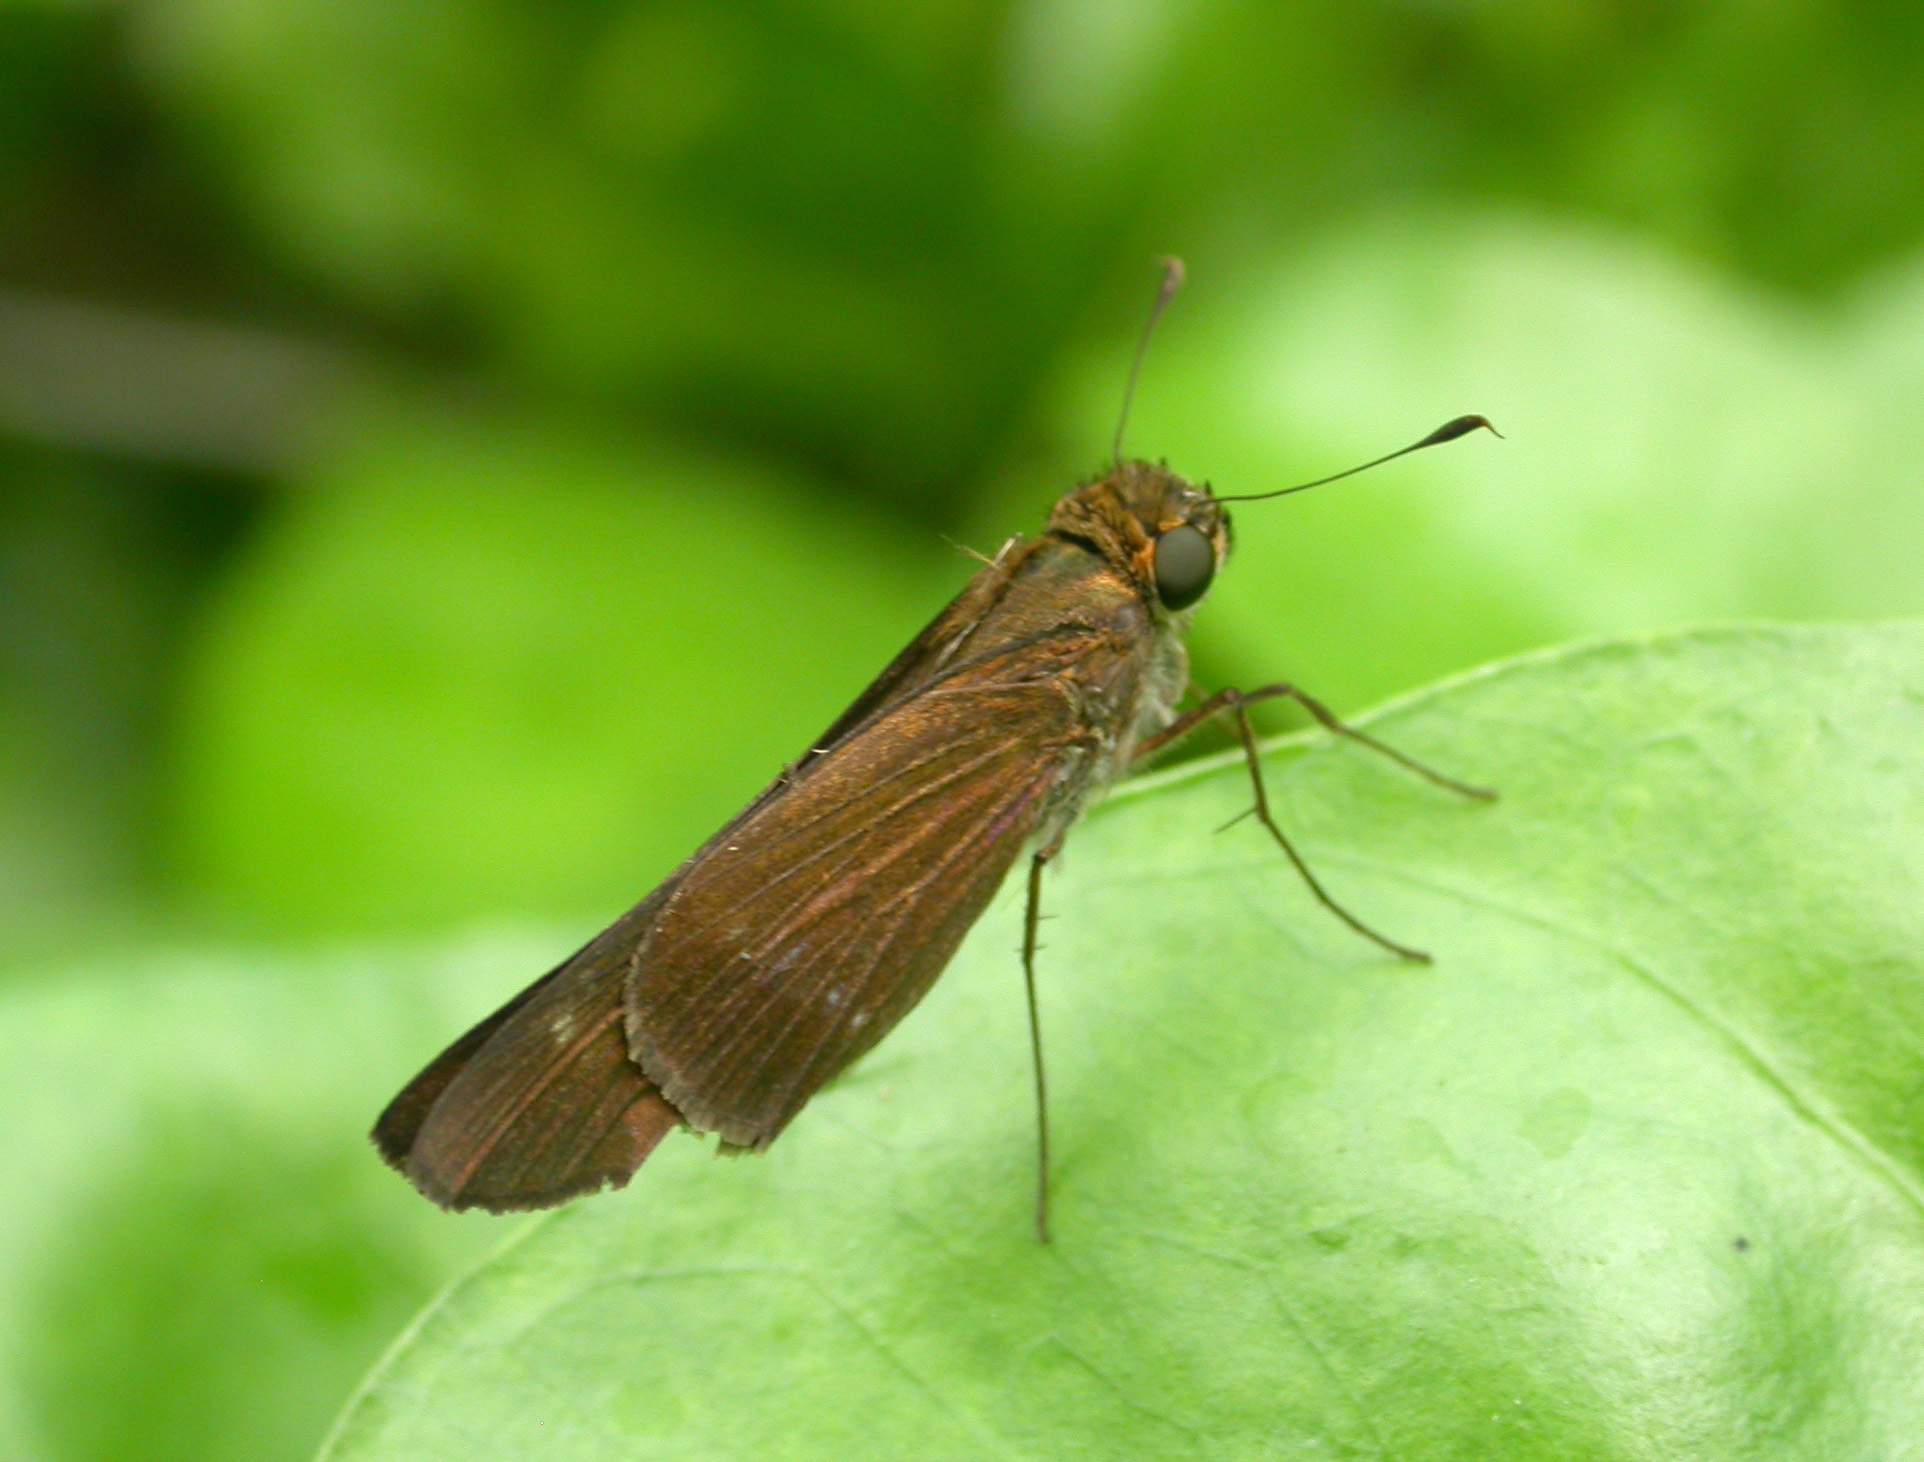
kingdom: Animalia
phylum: Arthropoda
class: Insecta
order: Lepidoptera
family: Hesperiidae
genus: Turesis
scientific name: Turesis lucas
